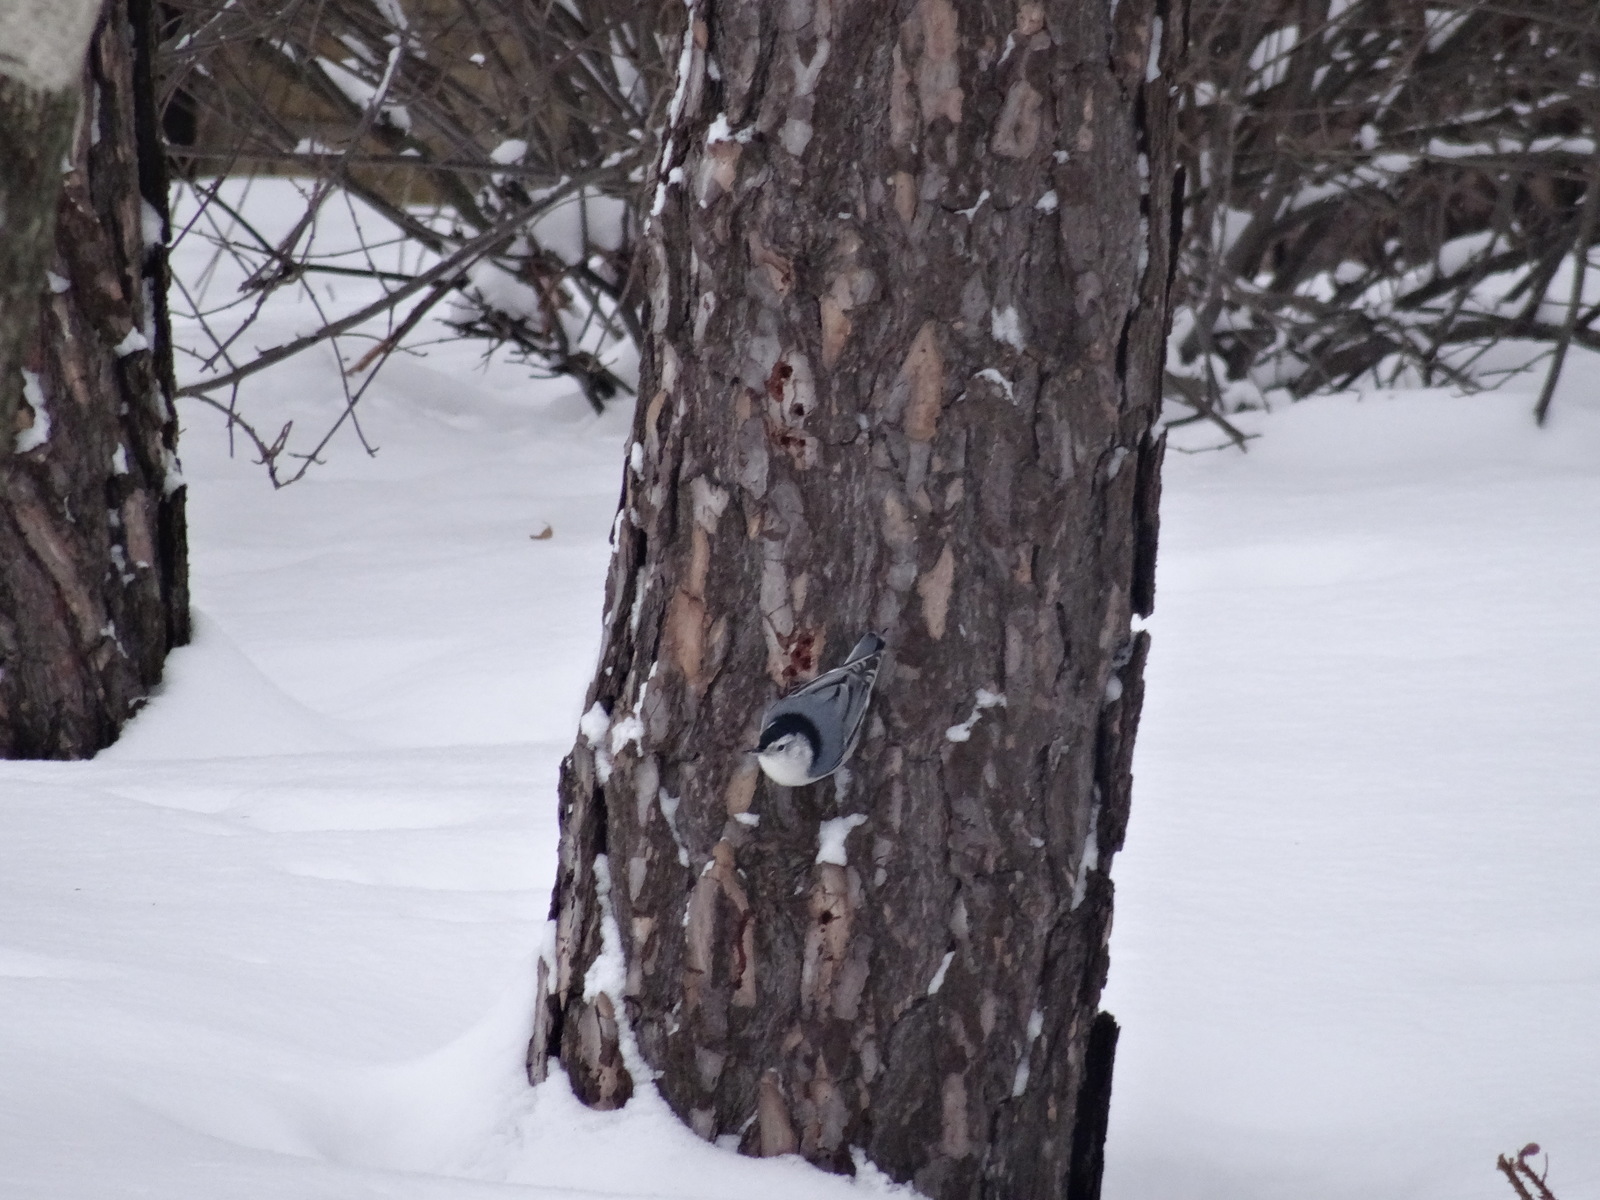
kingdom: Animalia
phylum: Chordata
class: Aves
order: Passeriformes
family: Sittidae
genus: Sitta
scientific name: Sitta carolinensis
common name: White-breasted nuthatch
